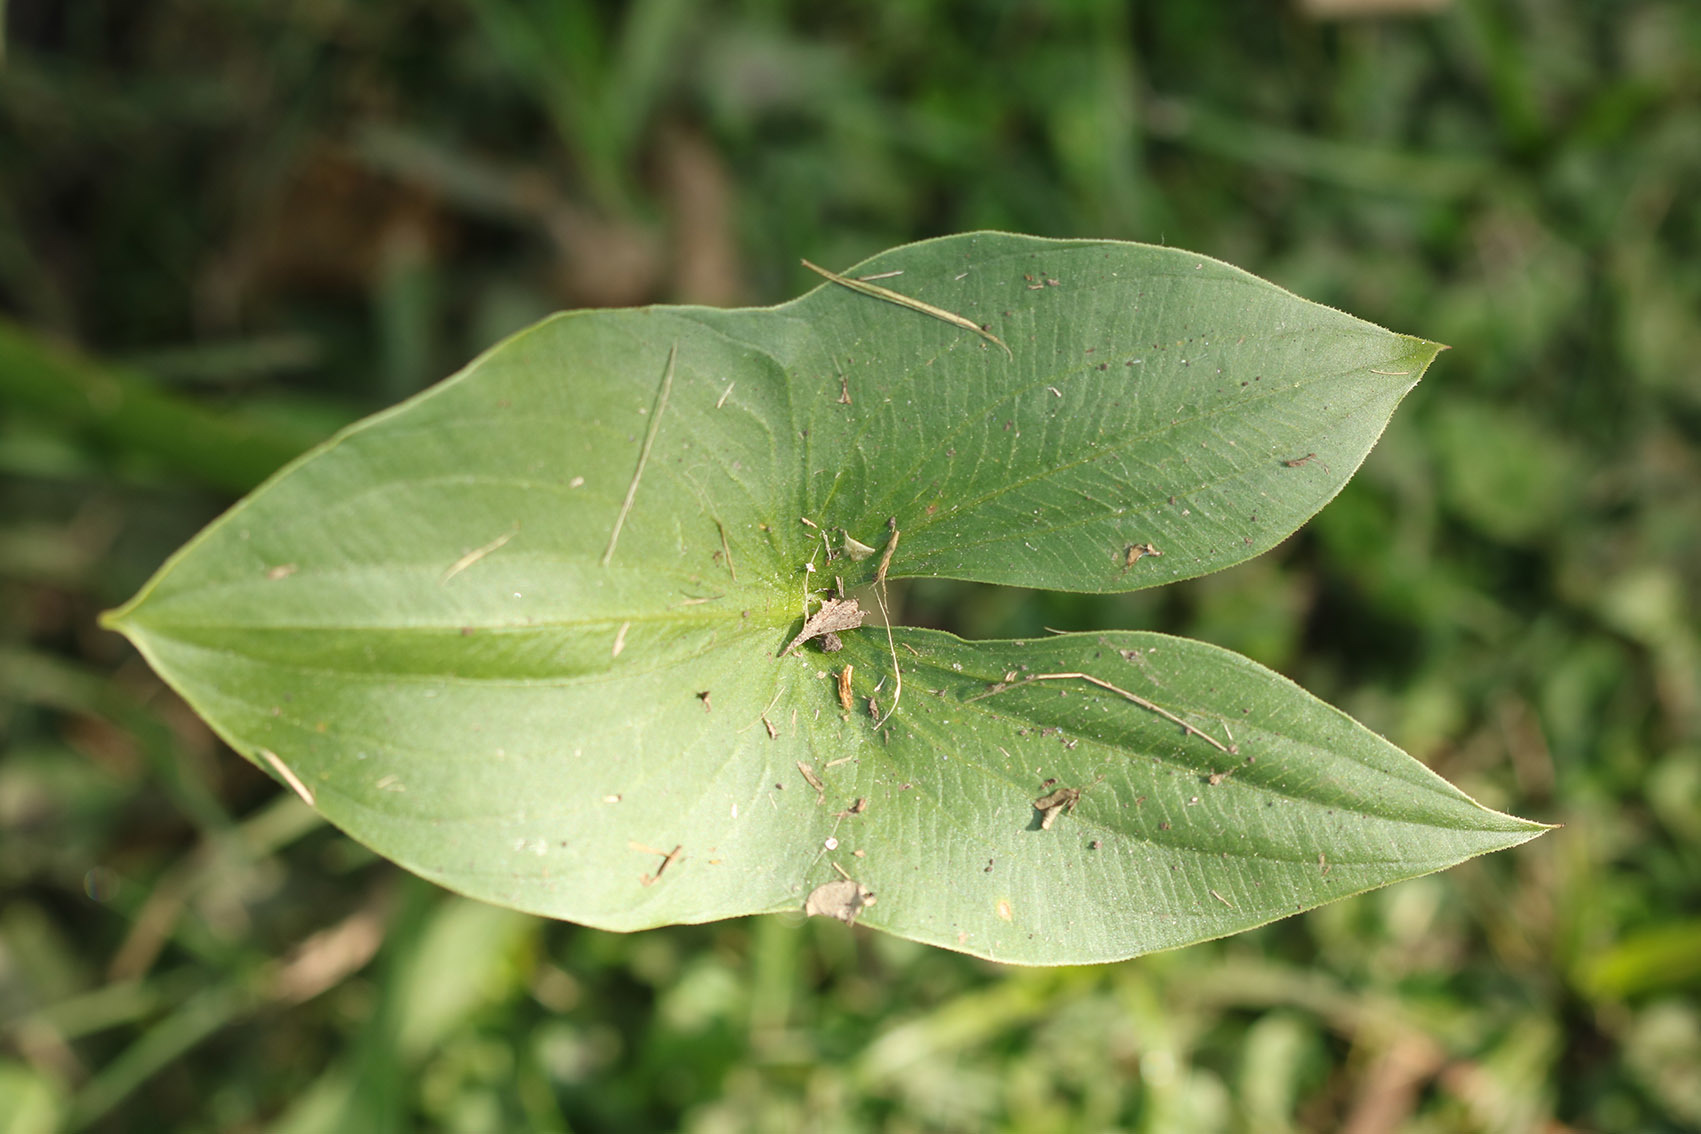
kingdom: Plantae
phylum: Tracheophyta
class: Liliopsida
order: Alismatales
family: Alismataceae
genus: Sagittaria
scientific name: Sagittaria montevidensis
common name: Giant arrowhead
